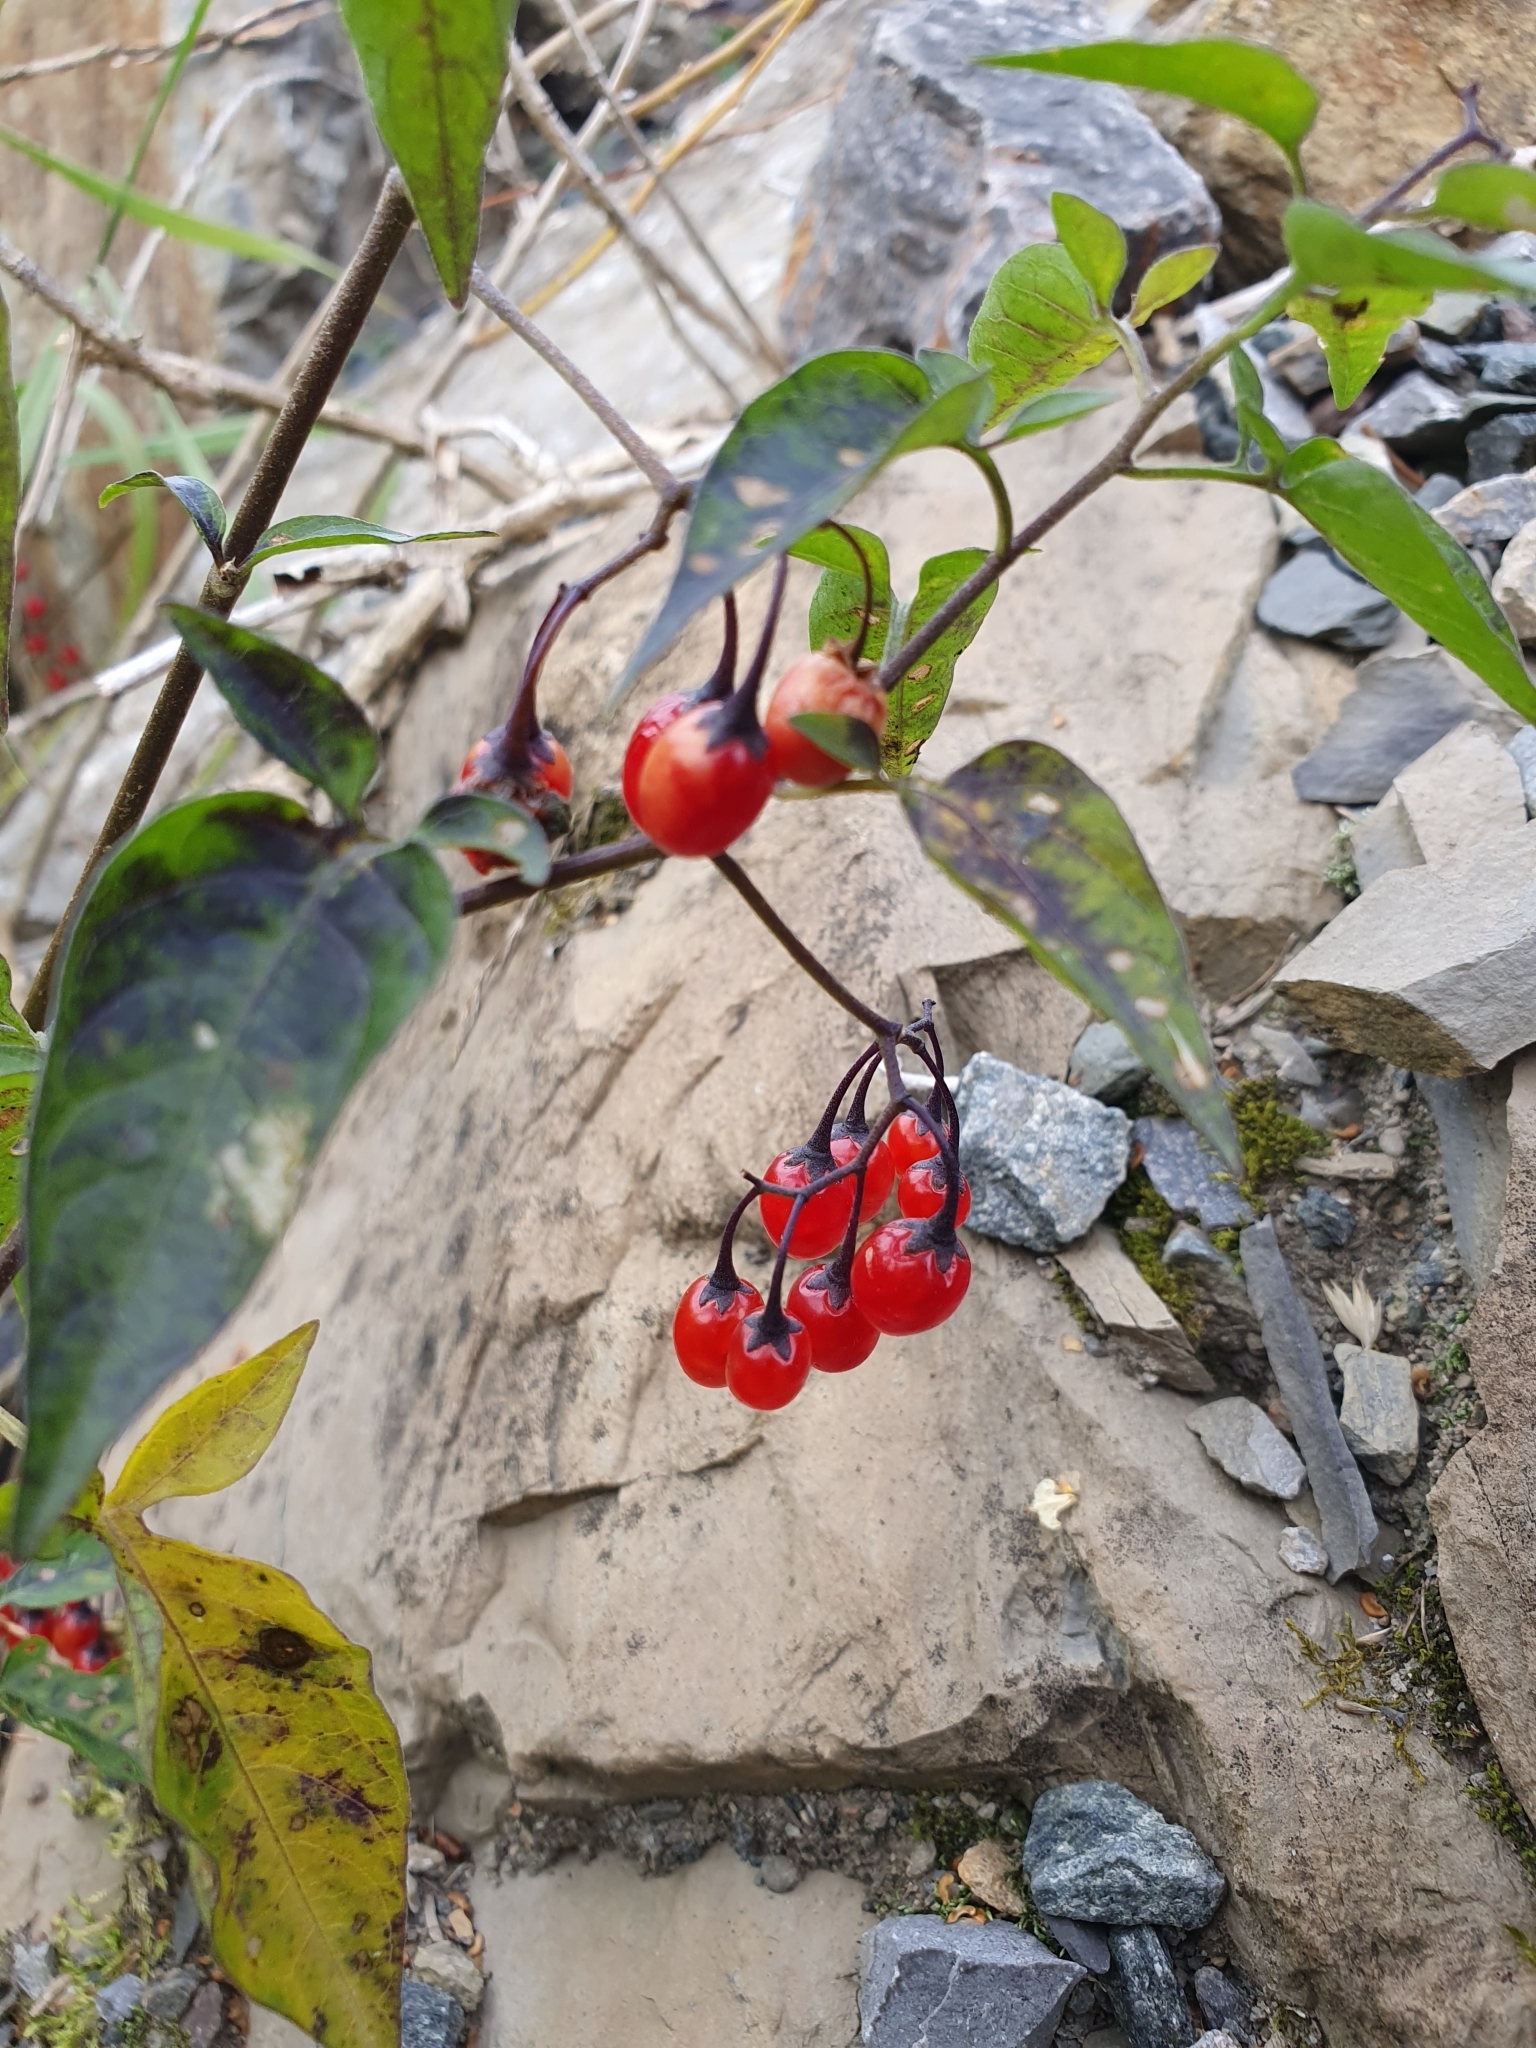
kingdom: Plantae
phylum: Tracheophyta
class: Magnoliopsida
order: Solanales
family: Solanaceae
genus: Solanum
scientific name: Solanum dulcamara
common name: Climbing nightshade
